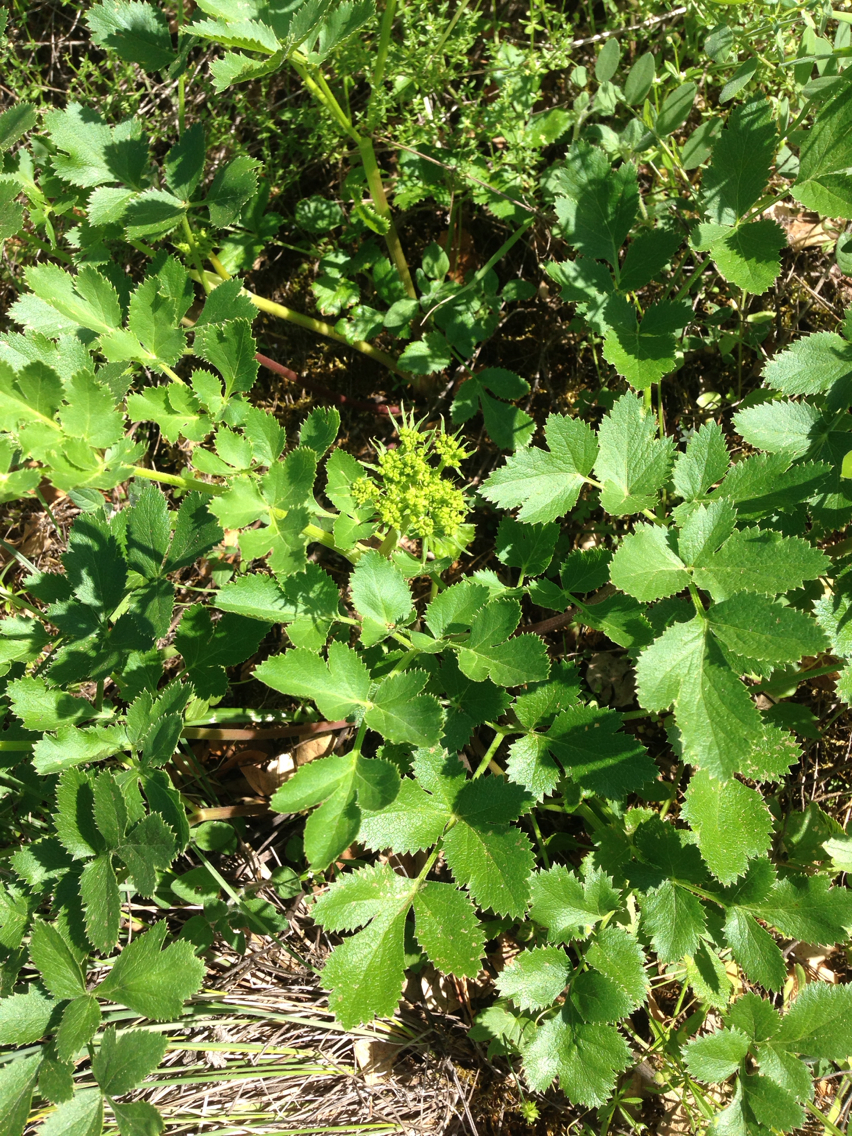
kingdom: Plantae
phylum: Tracheophyta
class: Magnoliopsida
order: Apiales
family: Apiaceae
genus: Tauschia
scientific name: Tauschia hartwegii
